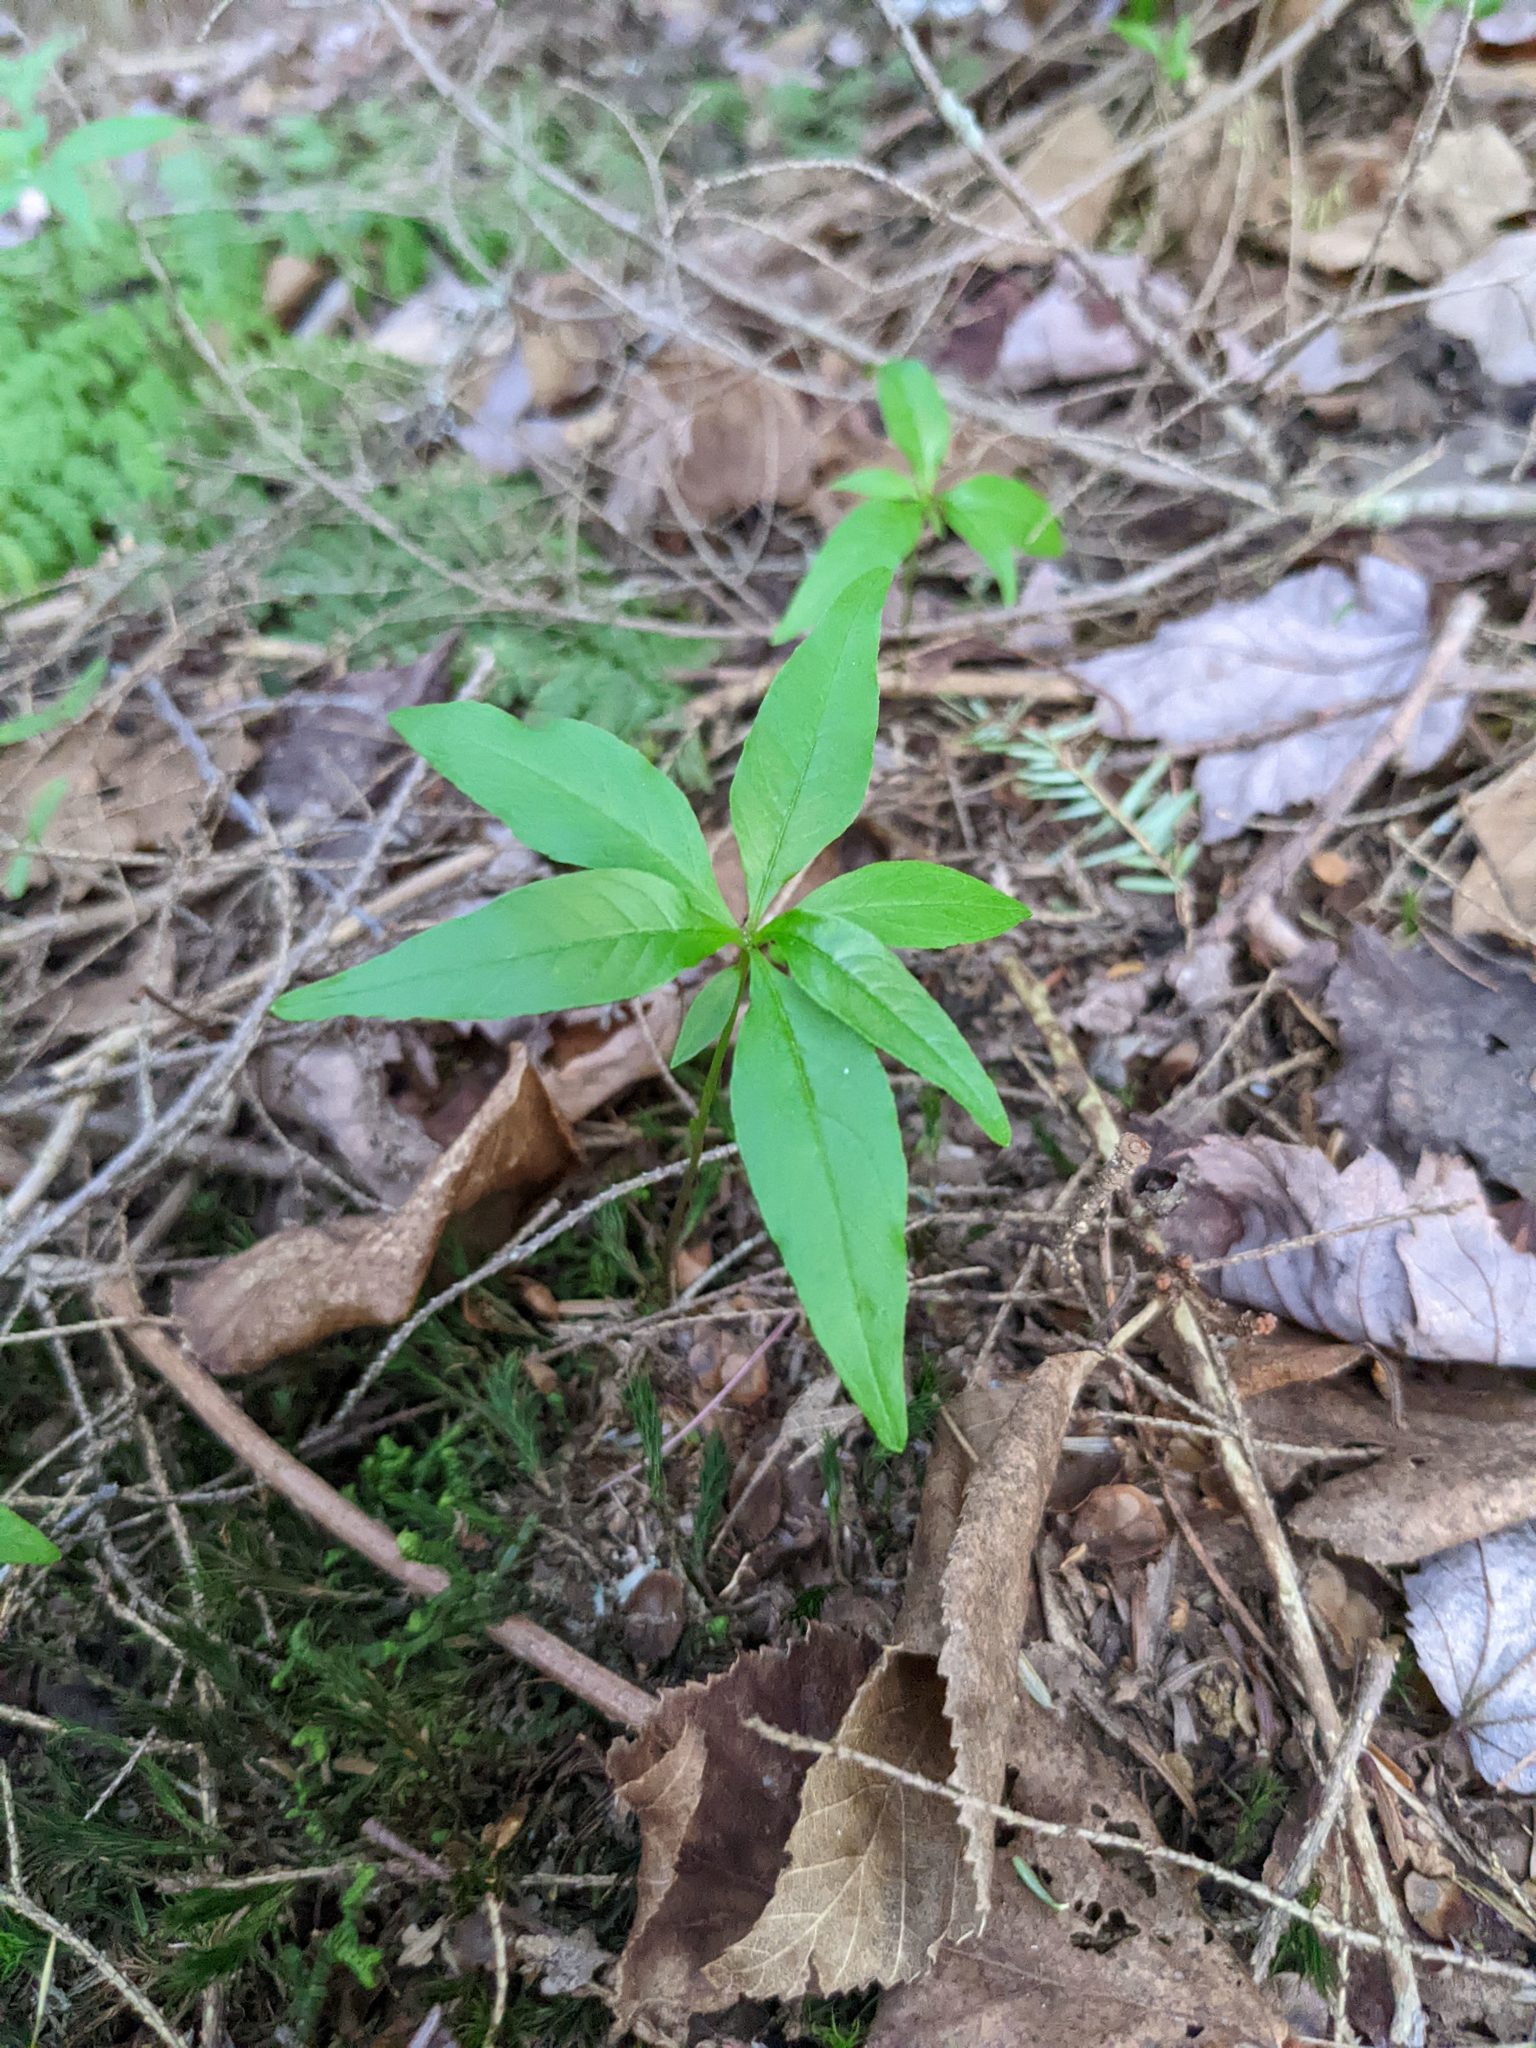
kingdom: Plantae
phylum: Tracheophyta
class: Magnoliopsida
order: Ericales
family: Primulaceae
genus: Lysimachia
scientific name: Lysimachia borealis
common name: American starflower
